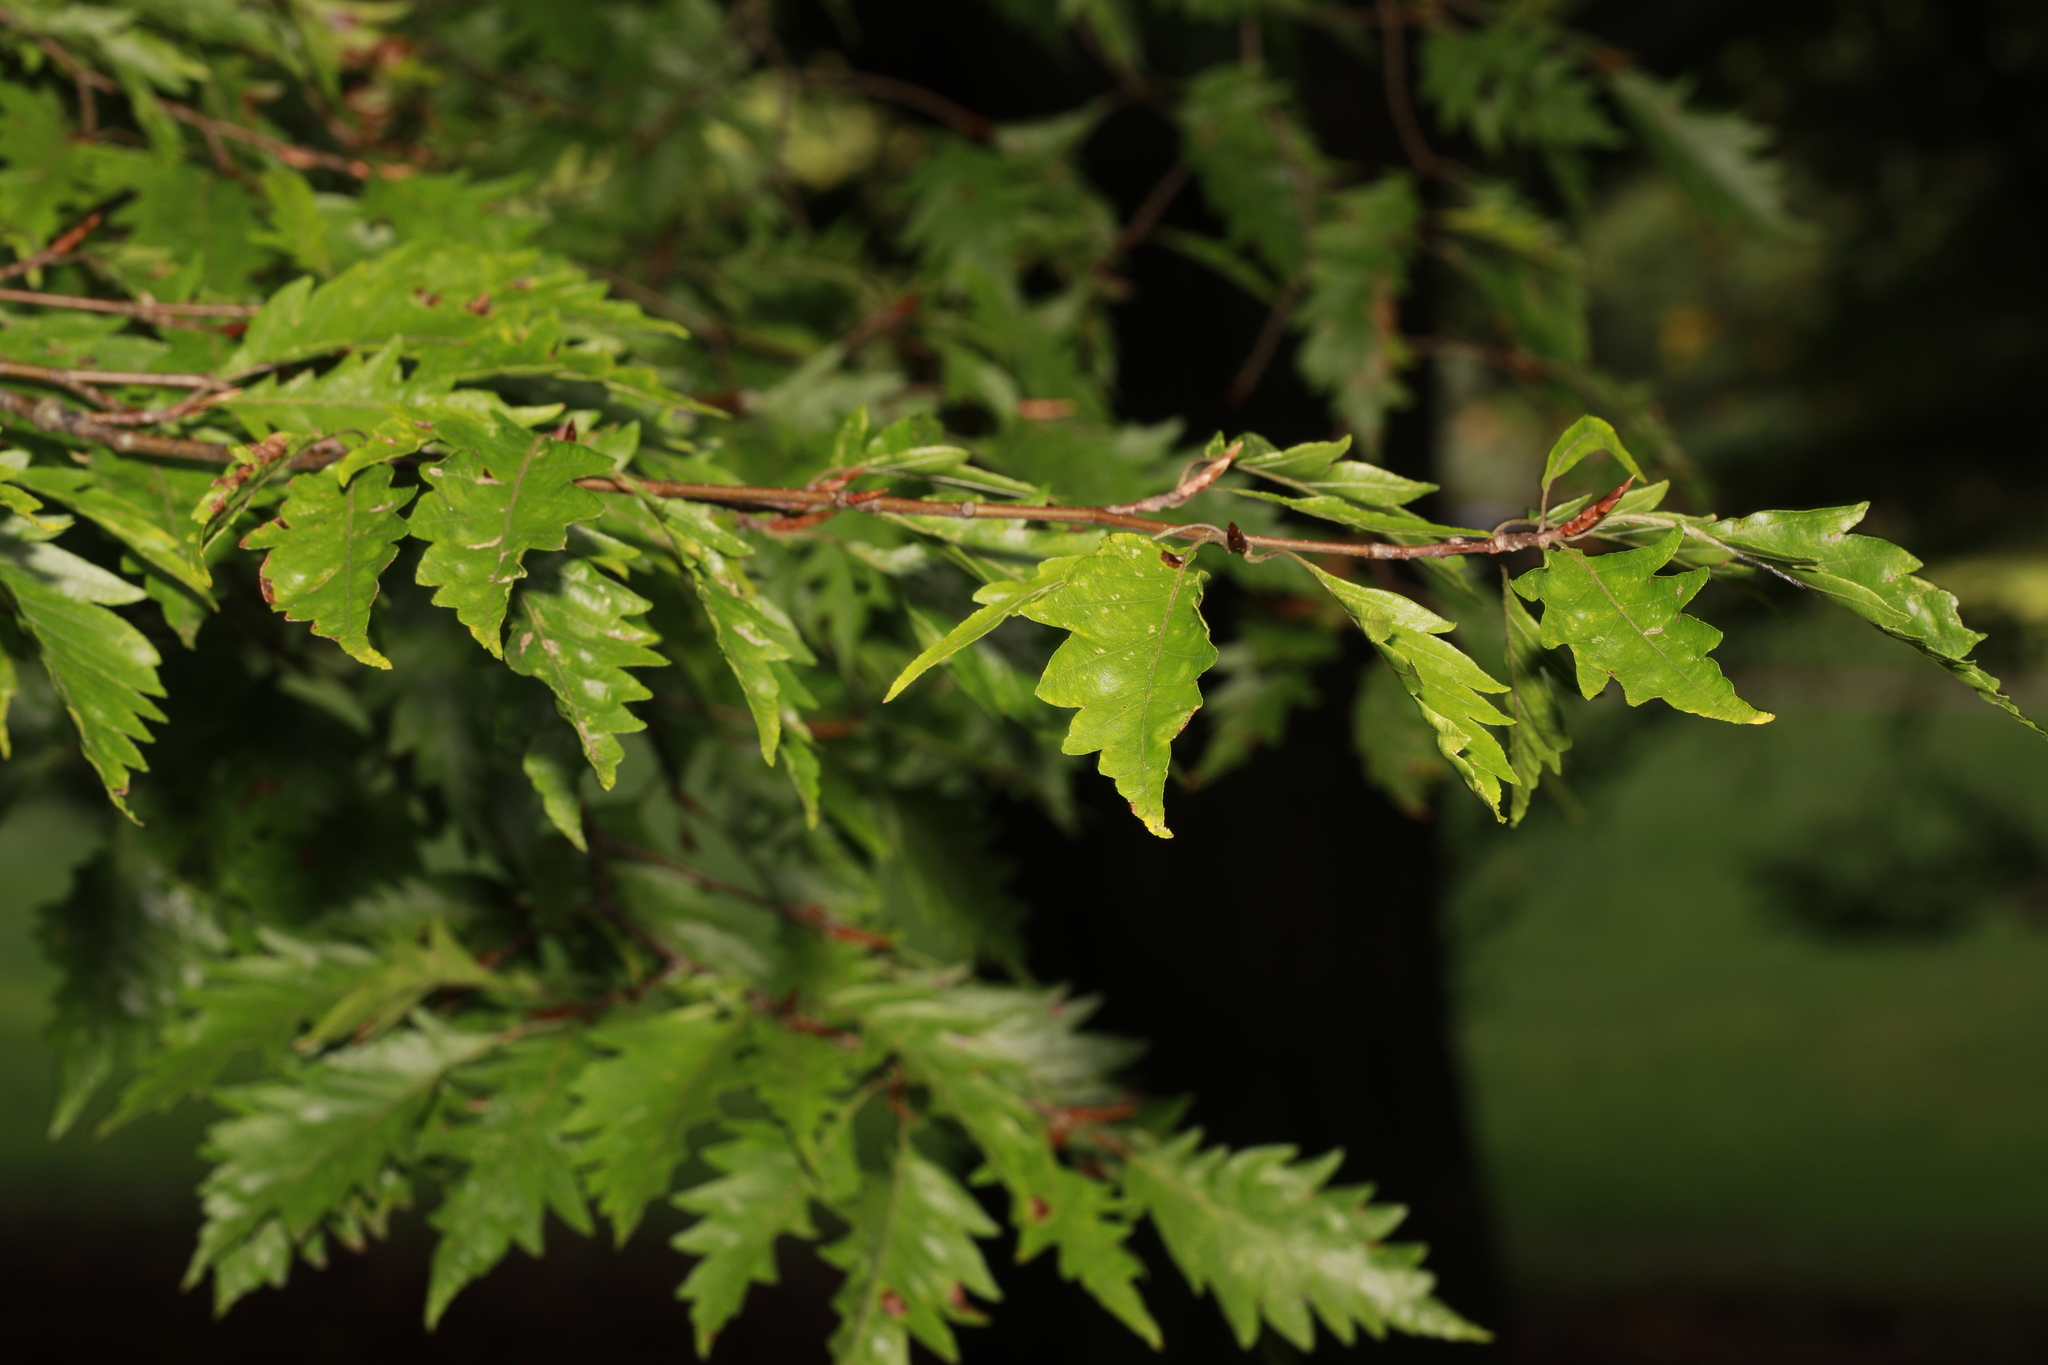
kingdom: Plantae
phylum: Tracheophyta
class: Magnoliopsida
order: Fagales
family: Fagaceae
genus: Fagus
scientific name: Fagus sylvatica
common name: Beech
